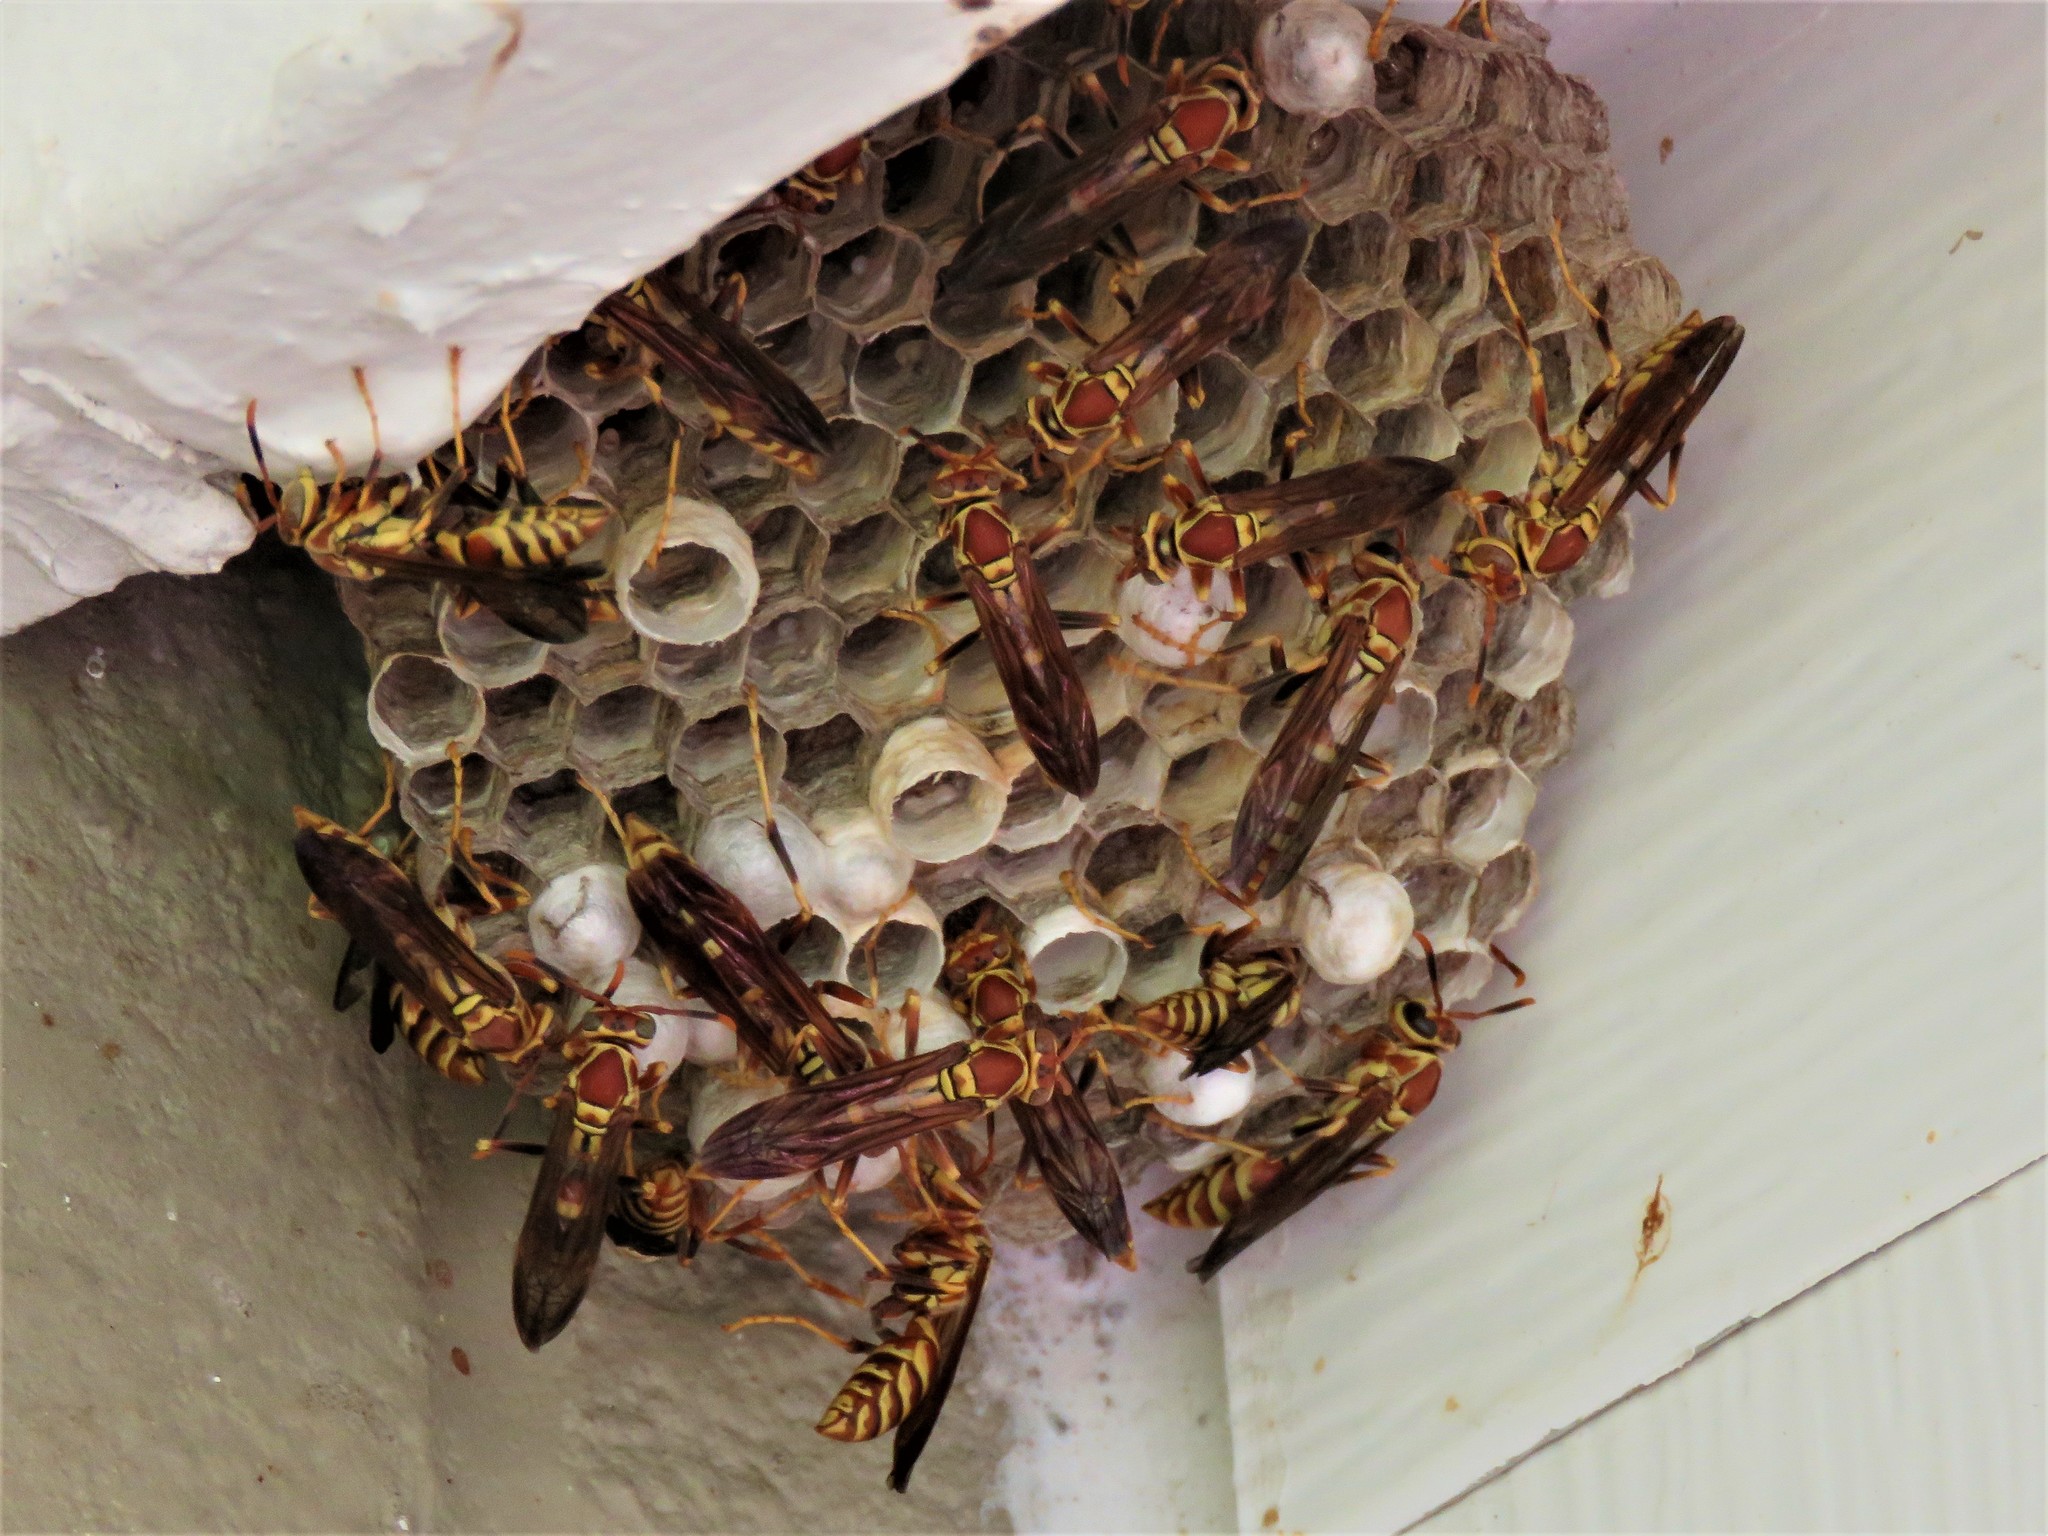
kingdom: Animalia
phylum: Arthropoda
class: Insecta
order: Hymenoptera
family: Eumenidae
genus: Polistes
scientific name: Polistes exclamans
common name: Paper wasp
